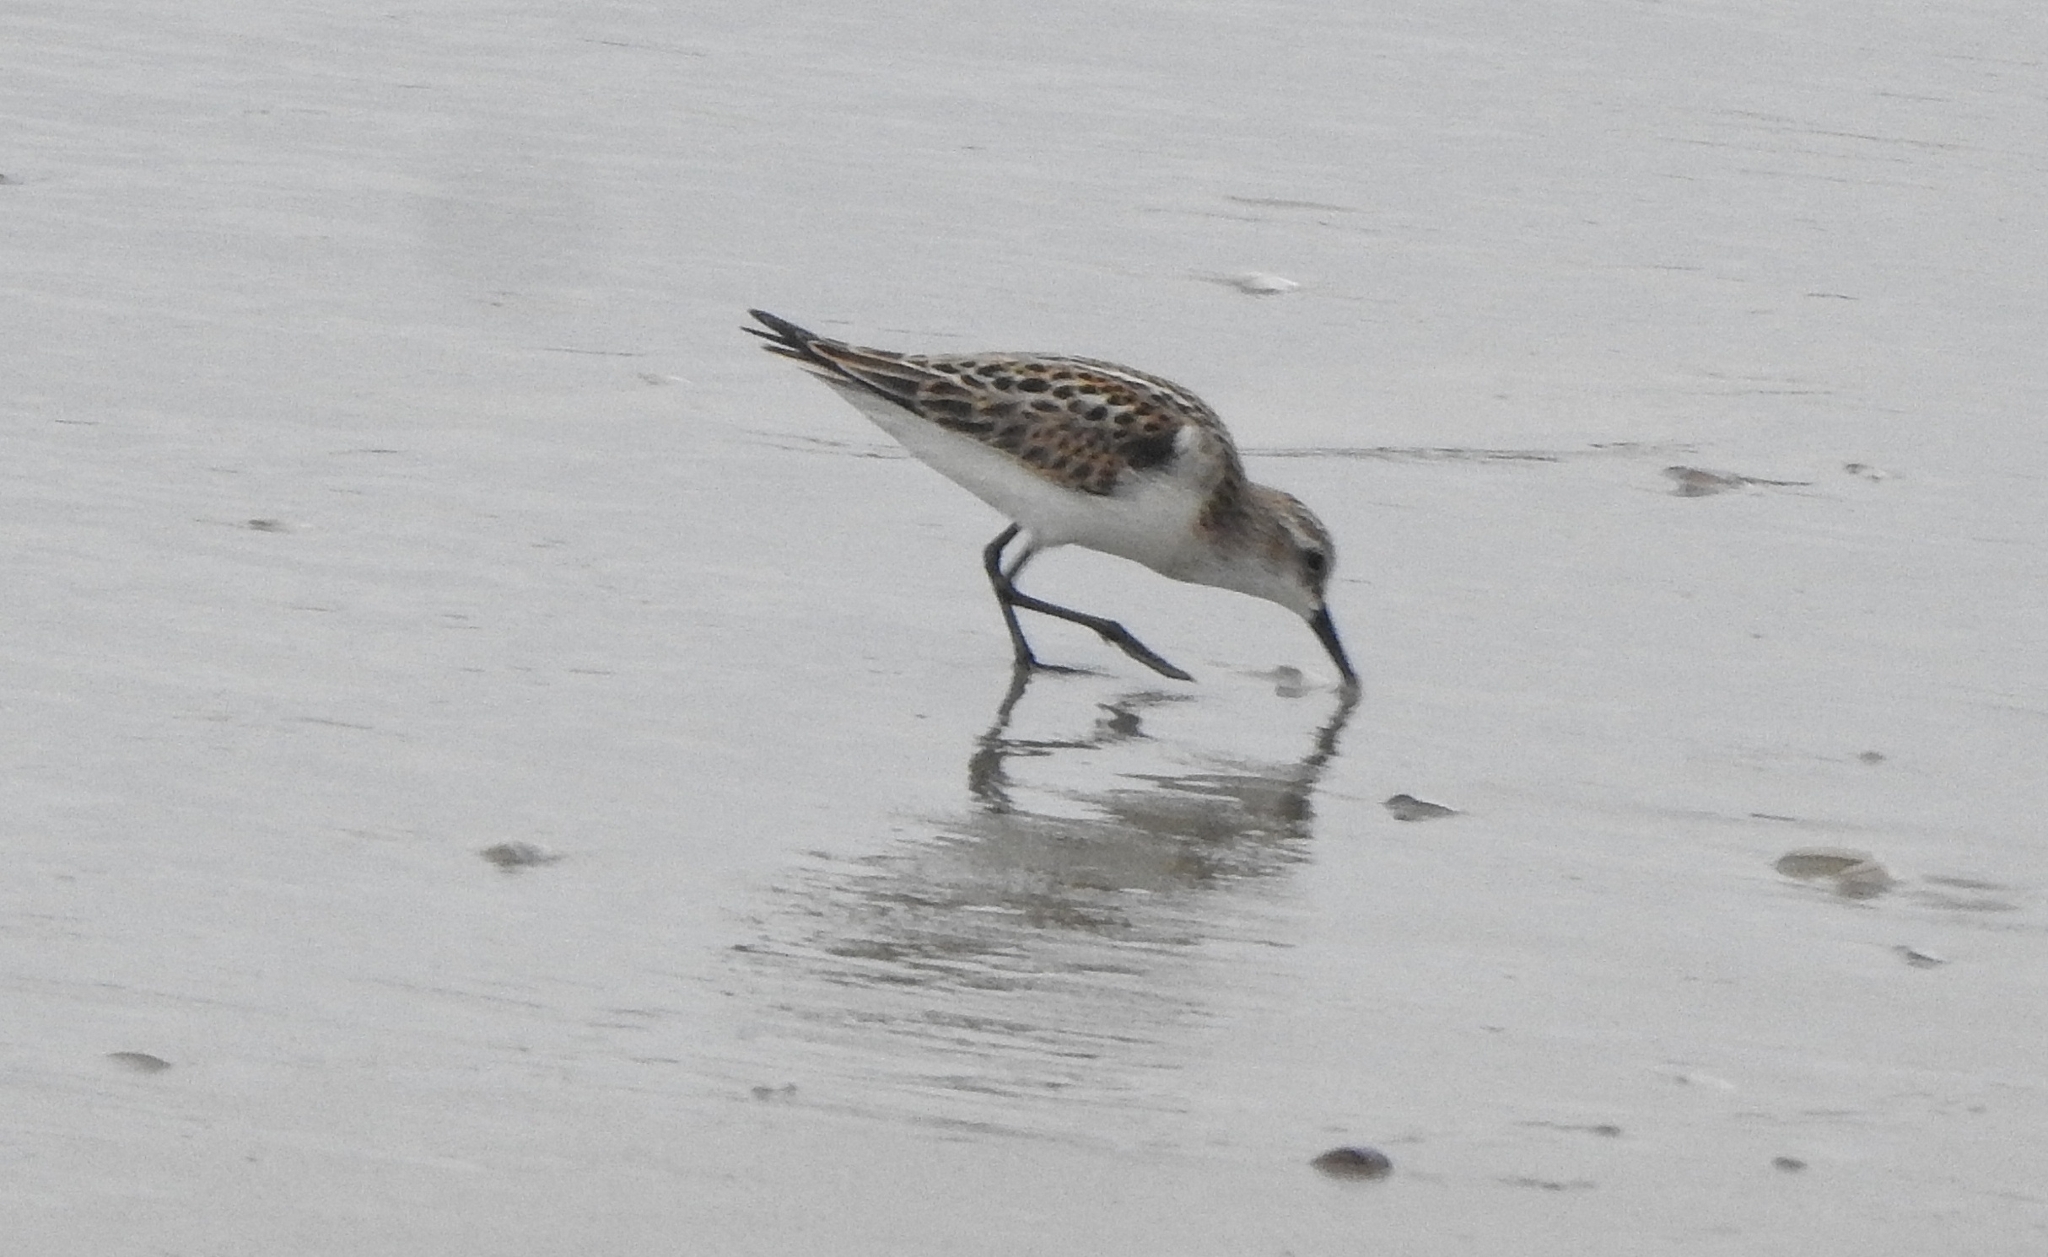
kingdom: Animalia
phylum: Chordata
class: Aves
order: Charadriiformes
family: Scolopacidae
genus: Calidris
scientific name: Calidris minuta
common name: Little stint
